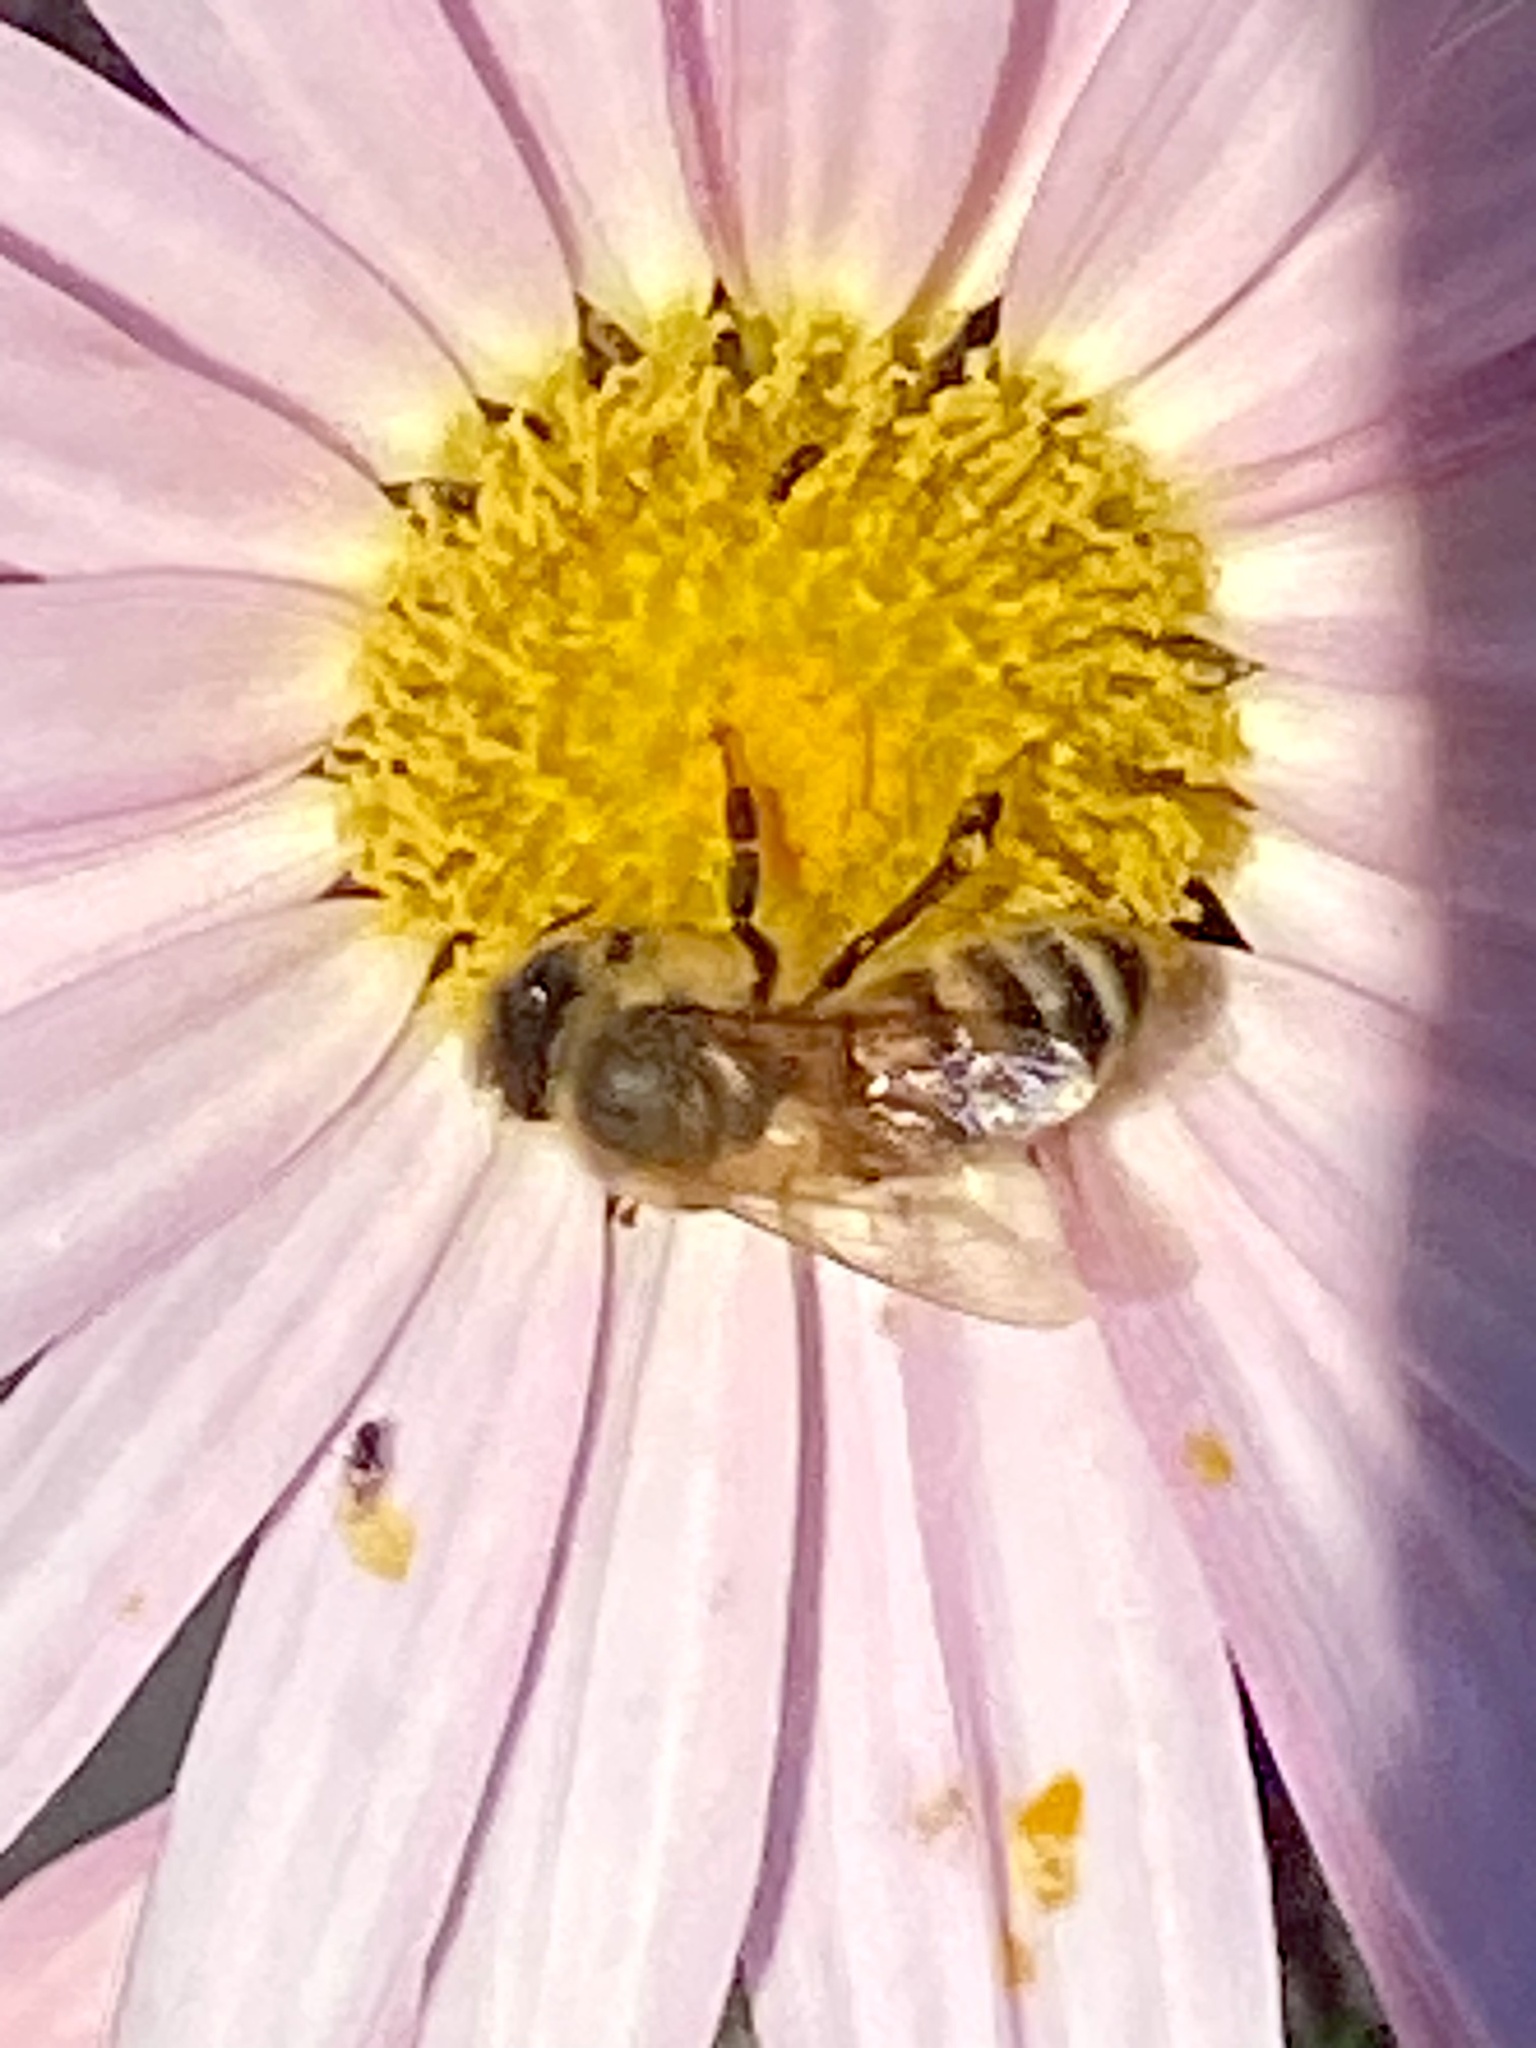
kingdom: Animalia
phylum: Arthropoda
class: Insecta
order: Hymenoptera
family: Apidae
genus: Apis
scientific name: Apis mellifera
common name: Honey bee
